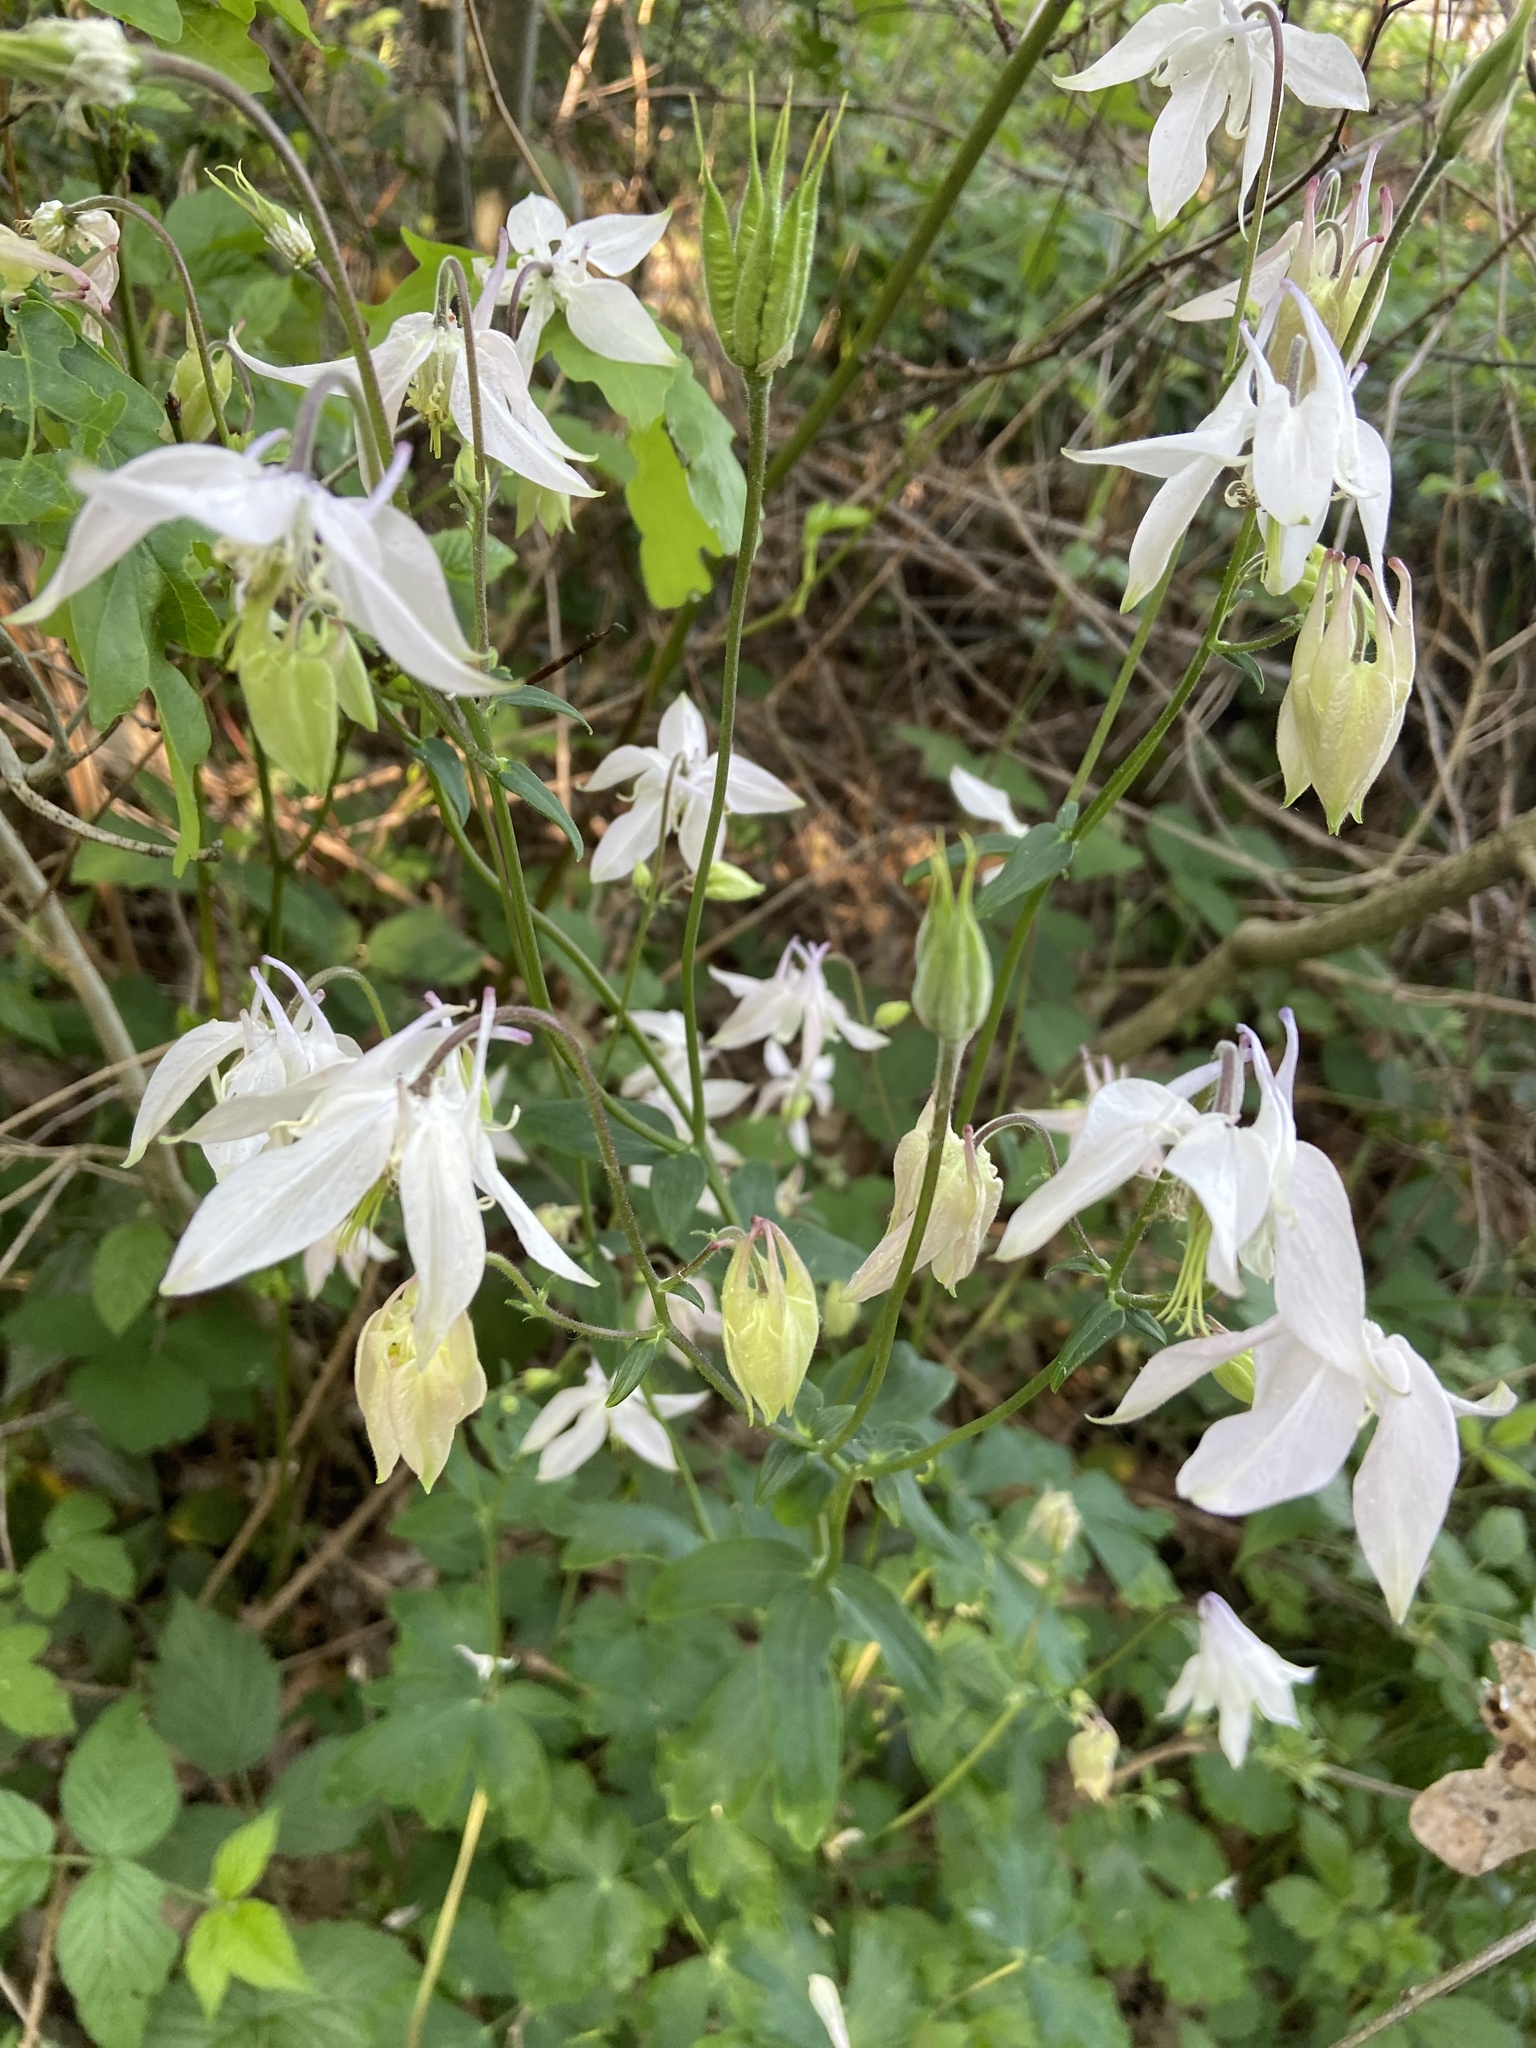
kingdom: Plantae
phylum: Tracheophyta
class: Magnoliopsida
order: Ranunculales
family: Ranunculaceae
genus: Aquilegia
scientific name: Aquilegia vulgaris
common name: Columbine
